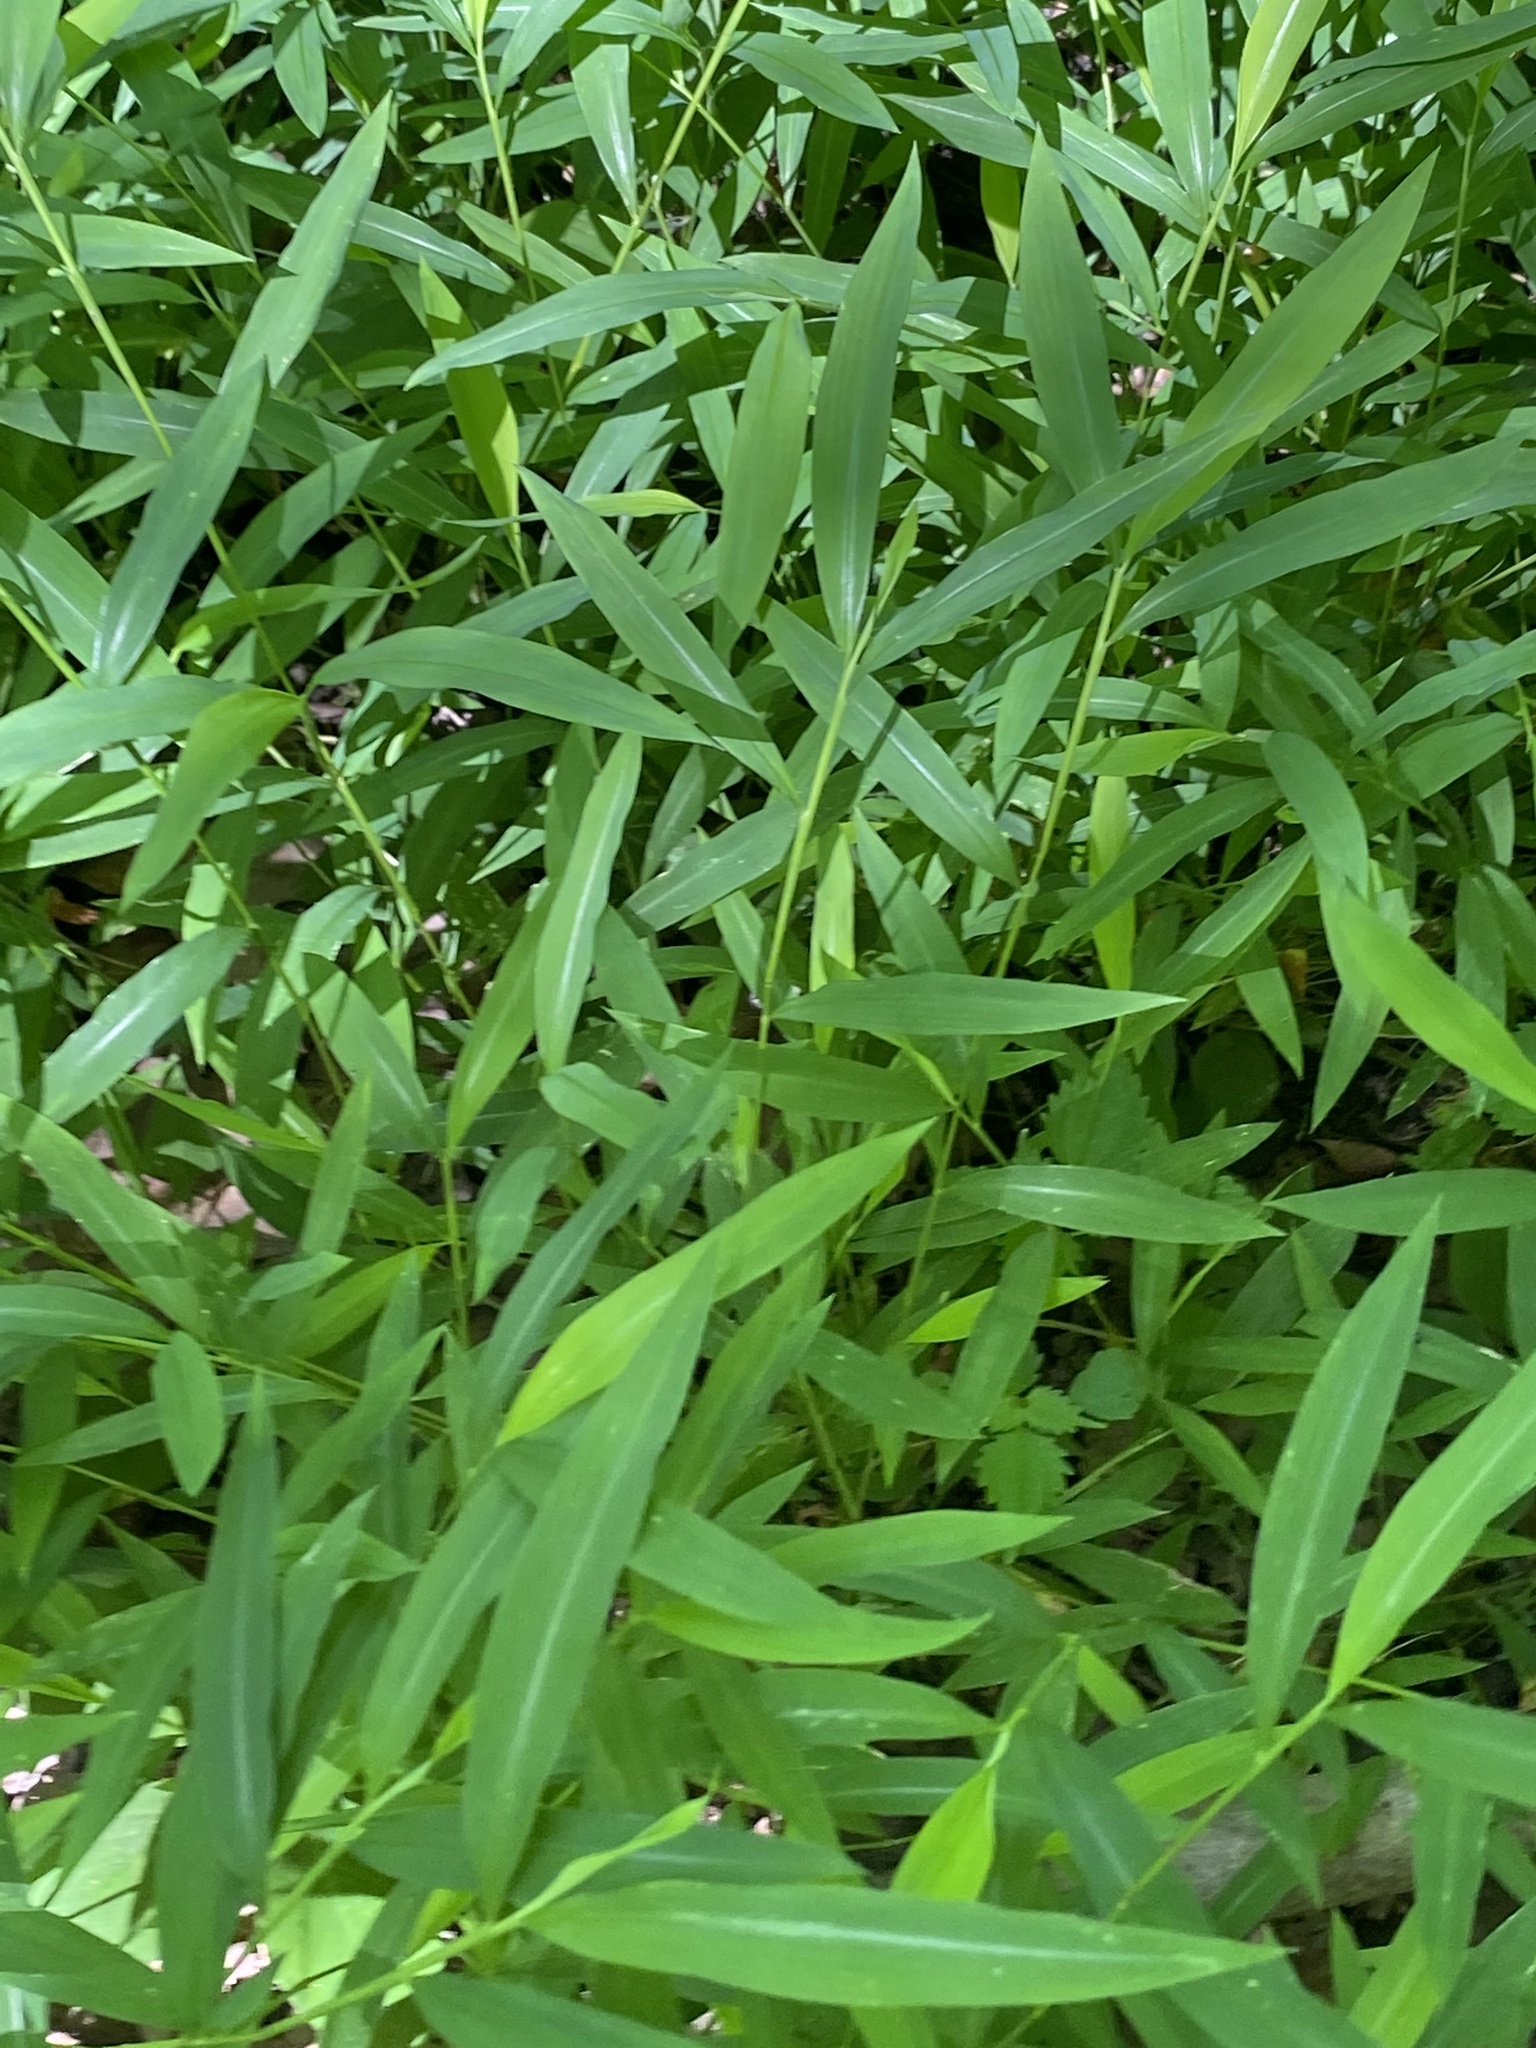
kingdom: Plantae
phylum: Tracheophyta
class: Liliopsida
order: Poales
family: Poaceae
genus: Microstegium
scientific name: Microstegium vimineum
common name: Japanese stiltgrass
